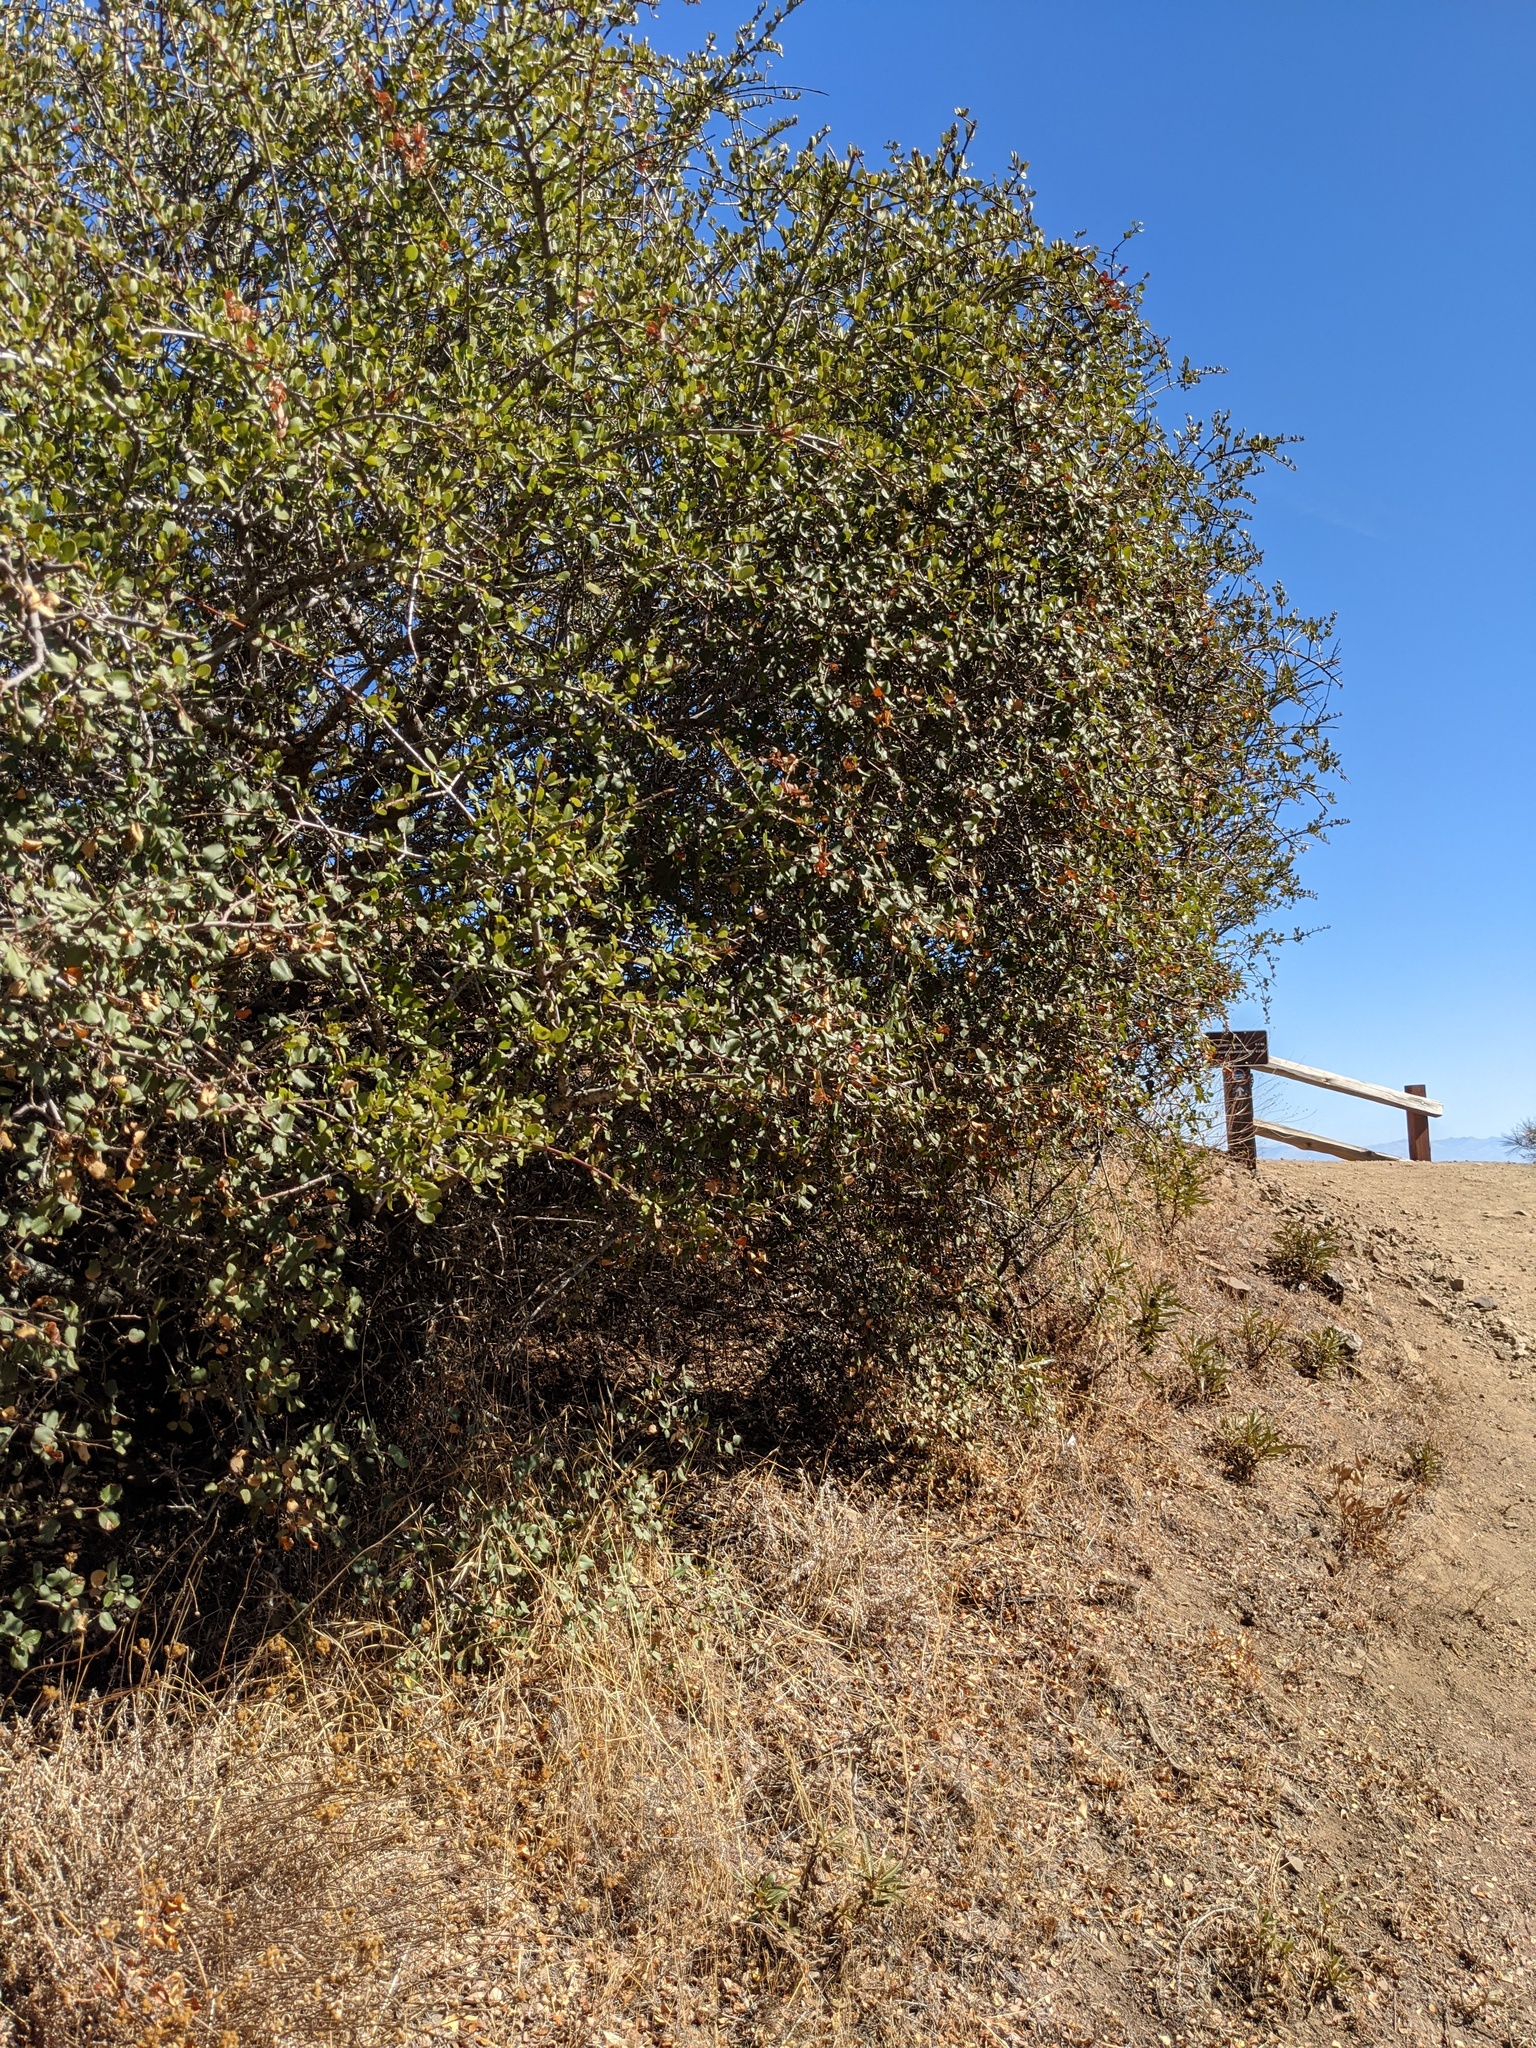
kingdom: Plantae
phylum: Tracheophyta
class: Magnoliopsida
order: Rosales
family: Rhamnaceae
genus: Endotropis
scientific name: Endotropis crocea
